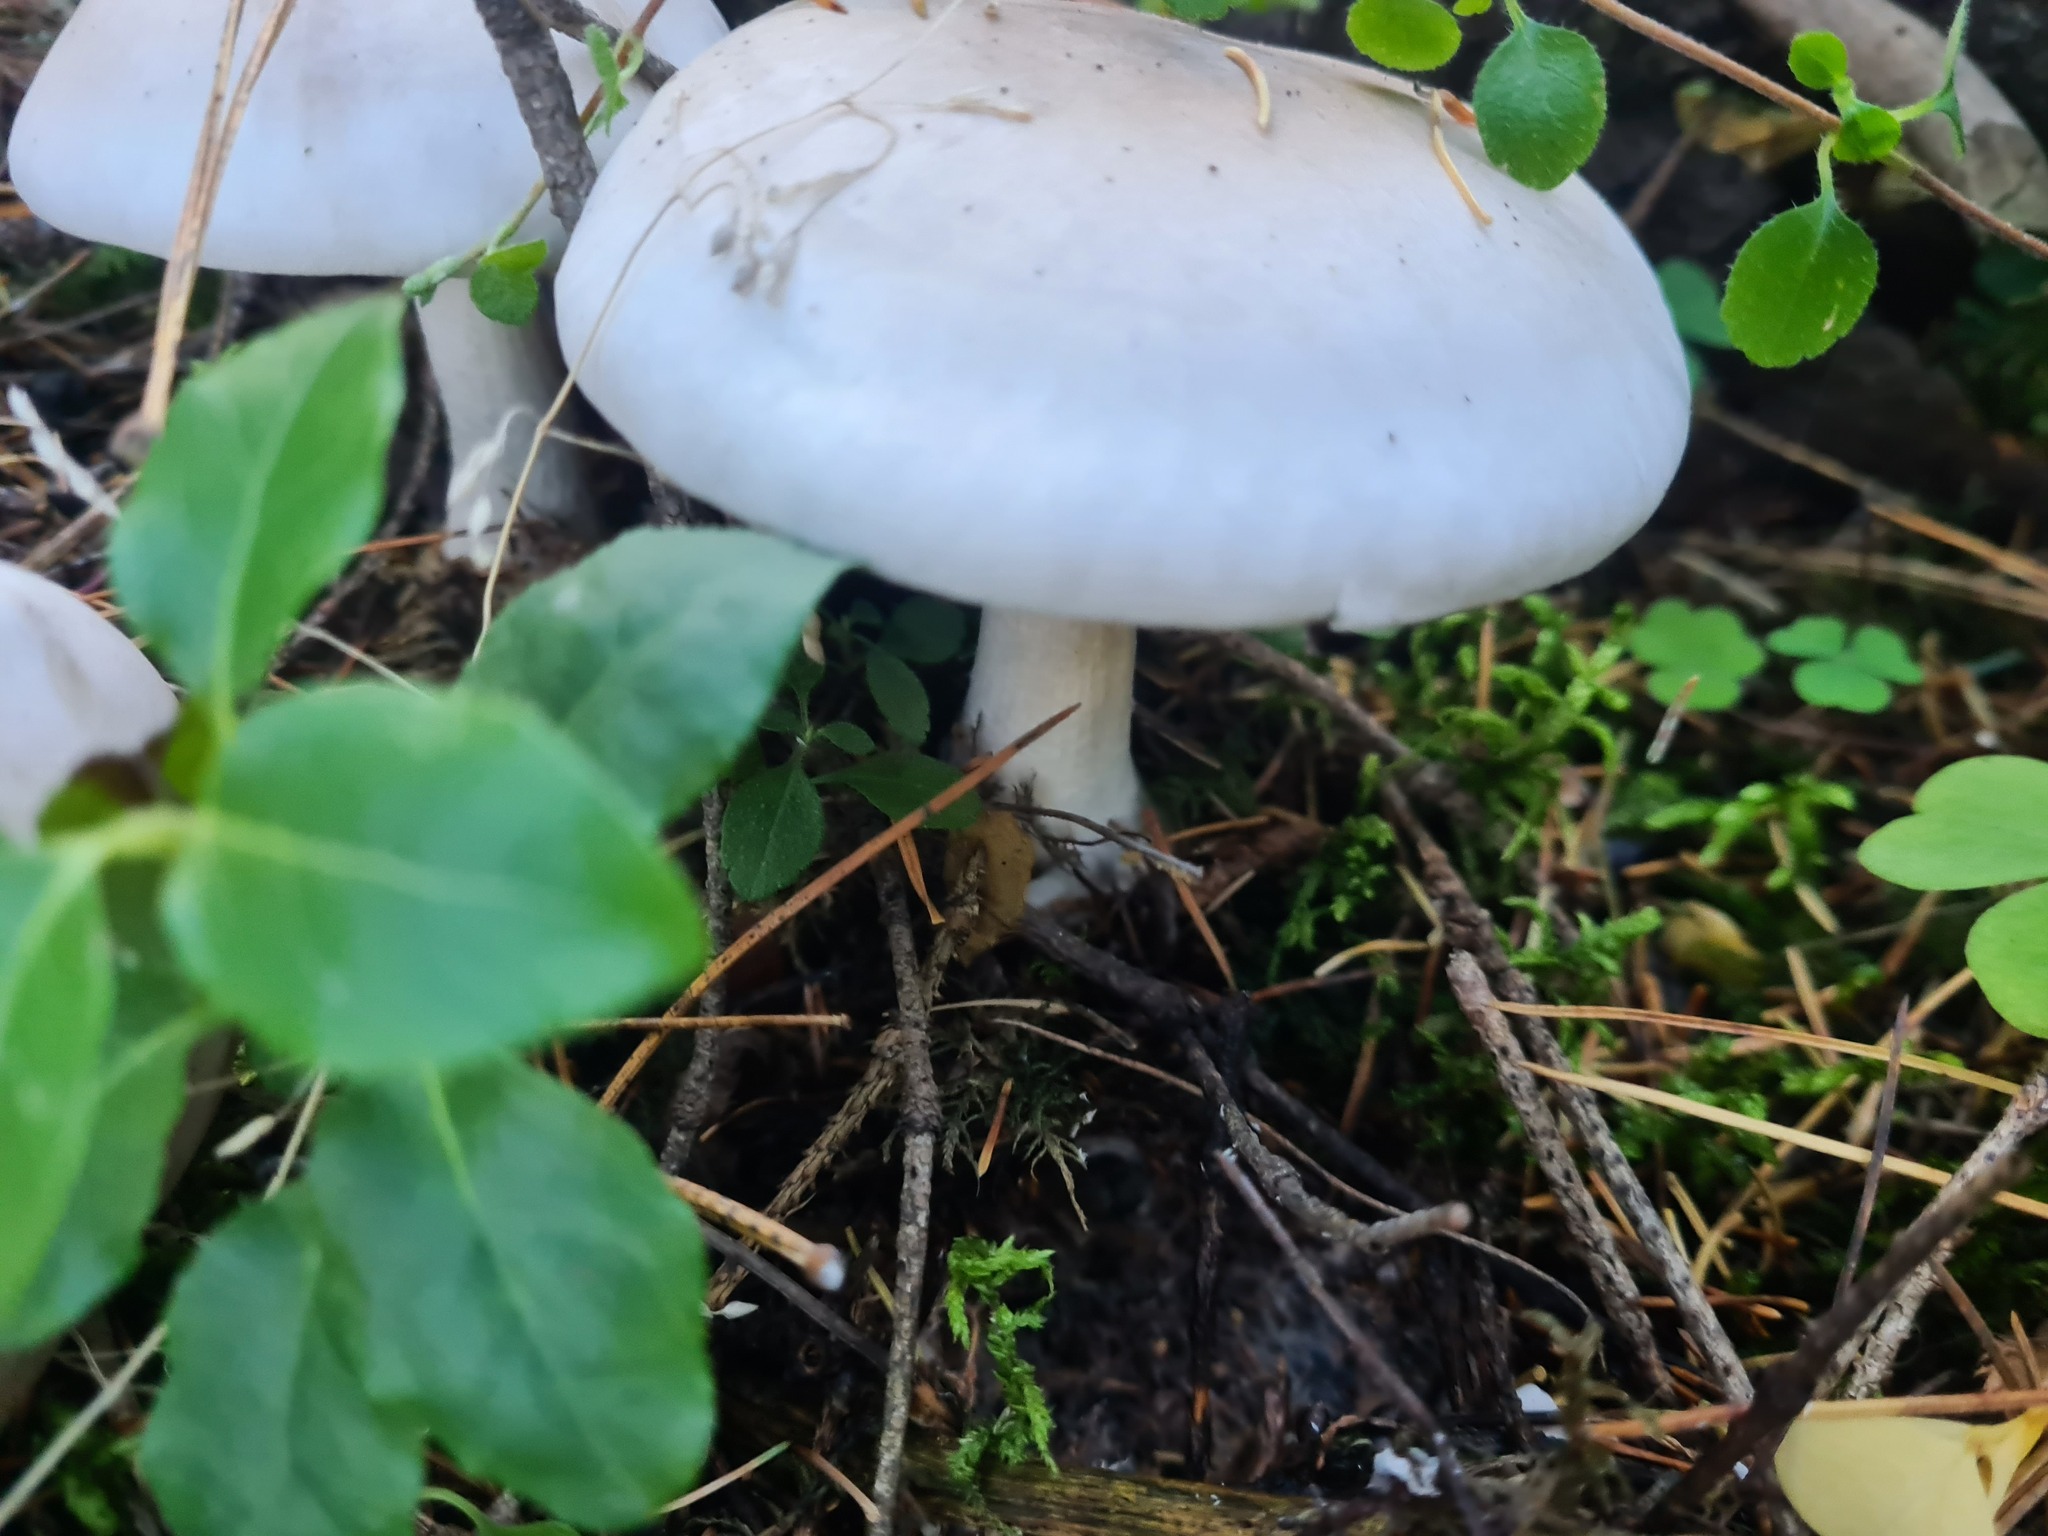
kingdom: Fungi
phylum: Basidiomycota
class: Agaricomycetes
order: Agaricales
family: Tricholomataceae
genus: Clitocybe
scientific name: Clitocybe nebularis
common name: Clouded agaric
